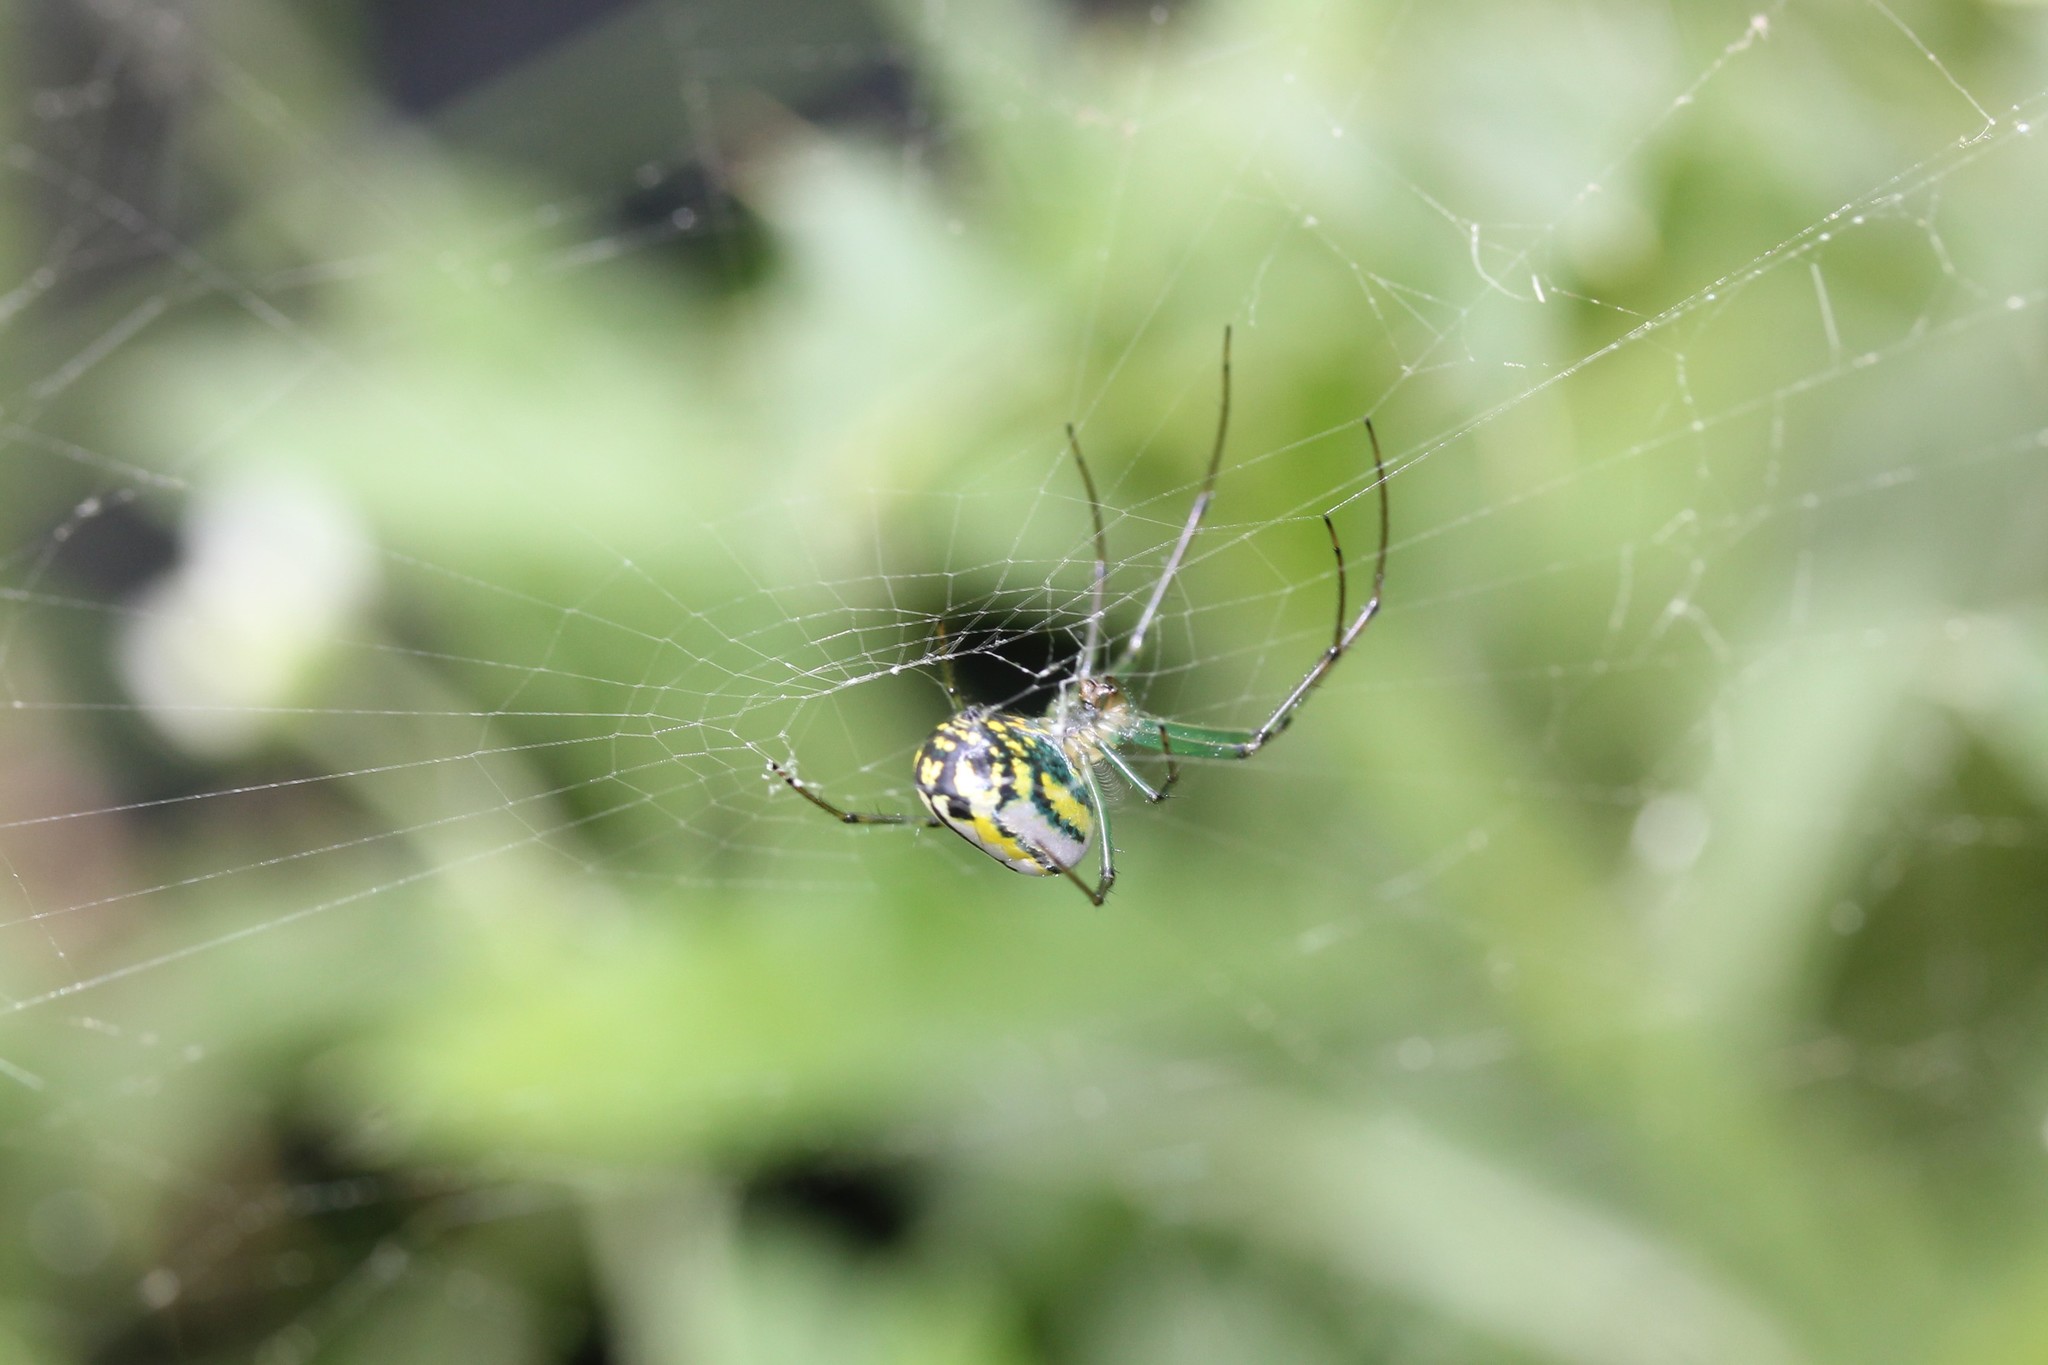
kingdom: Animalia
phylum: Arthropoda
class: Arachnida
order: Araneae
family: Tetragnathidae
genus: Leucauge
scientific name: Leucauge venusta
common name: Longjawed orb weavers
